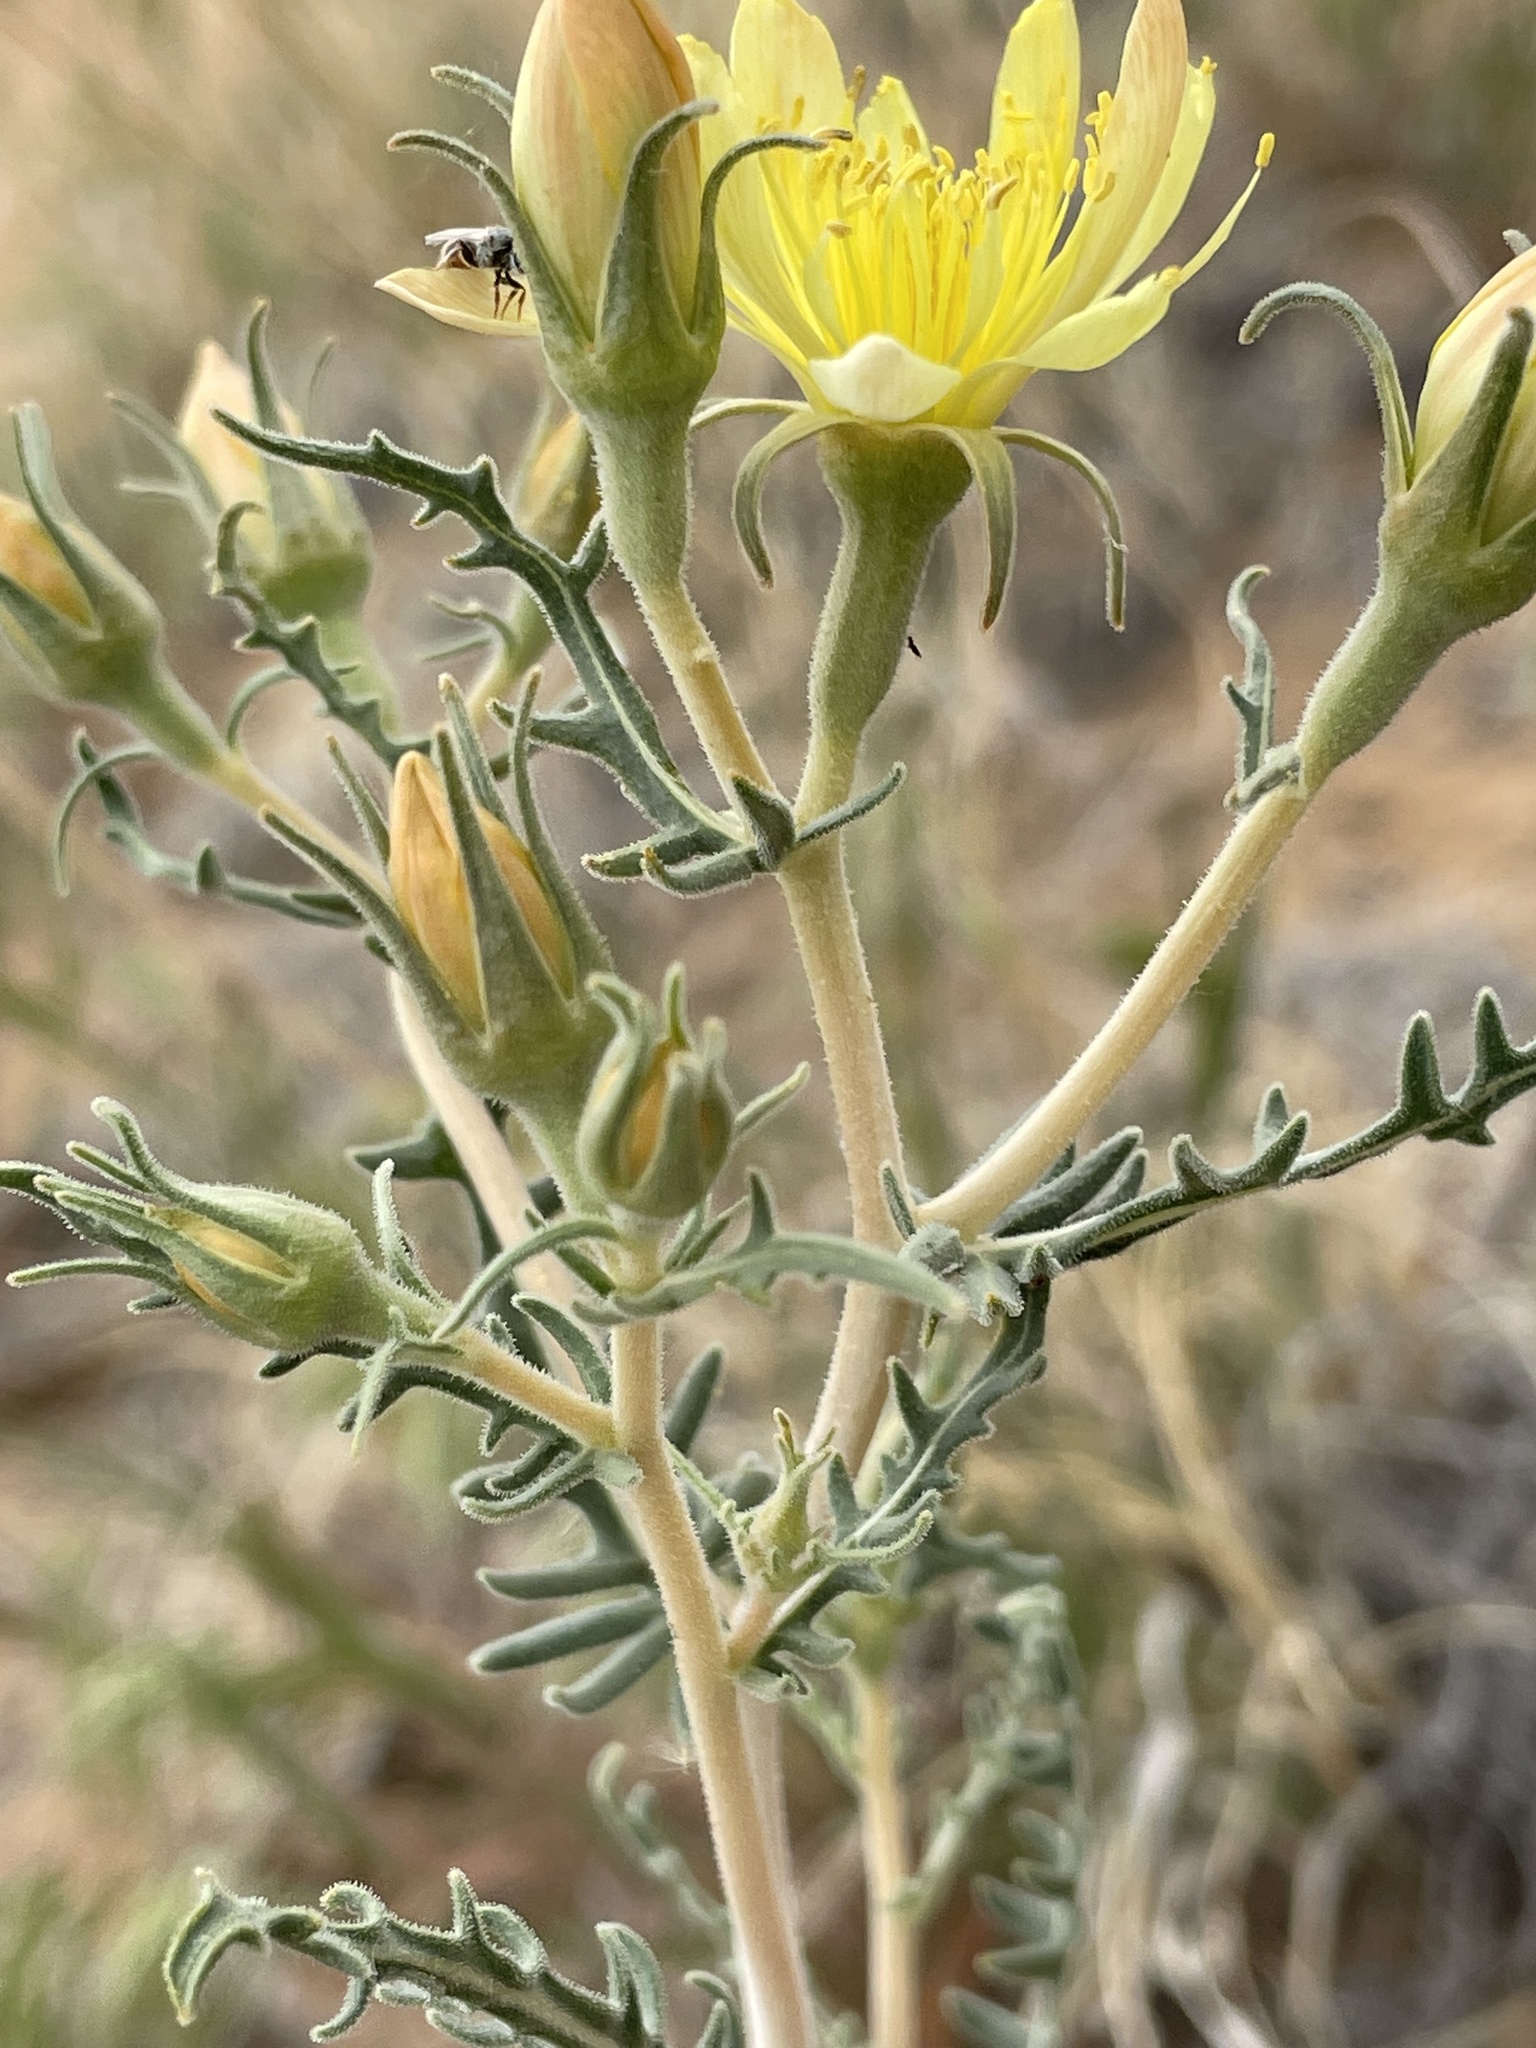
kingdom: Plantae
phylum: Tracheophyta
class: Magnoliopsida
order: Cornales
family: Loasaceae
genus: Mentzelia
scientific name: Mentzelia procera
